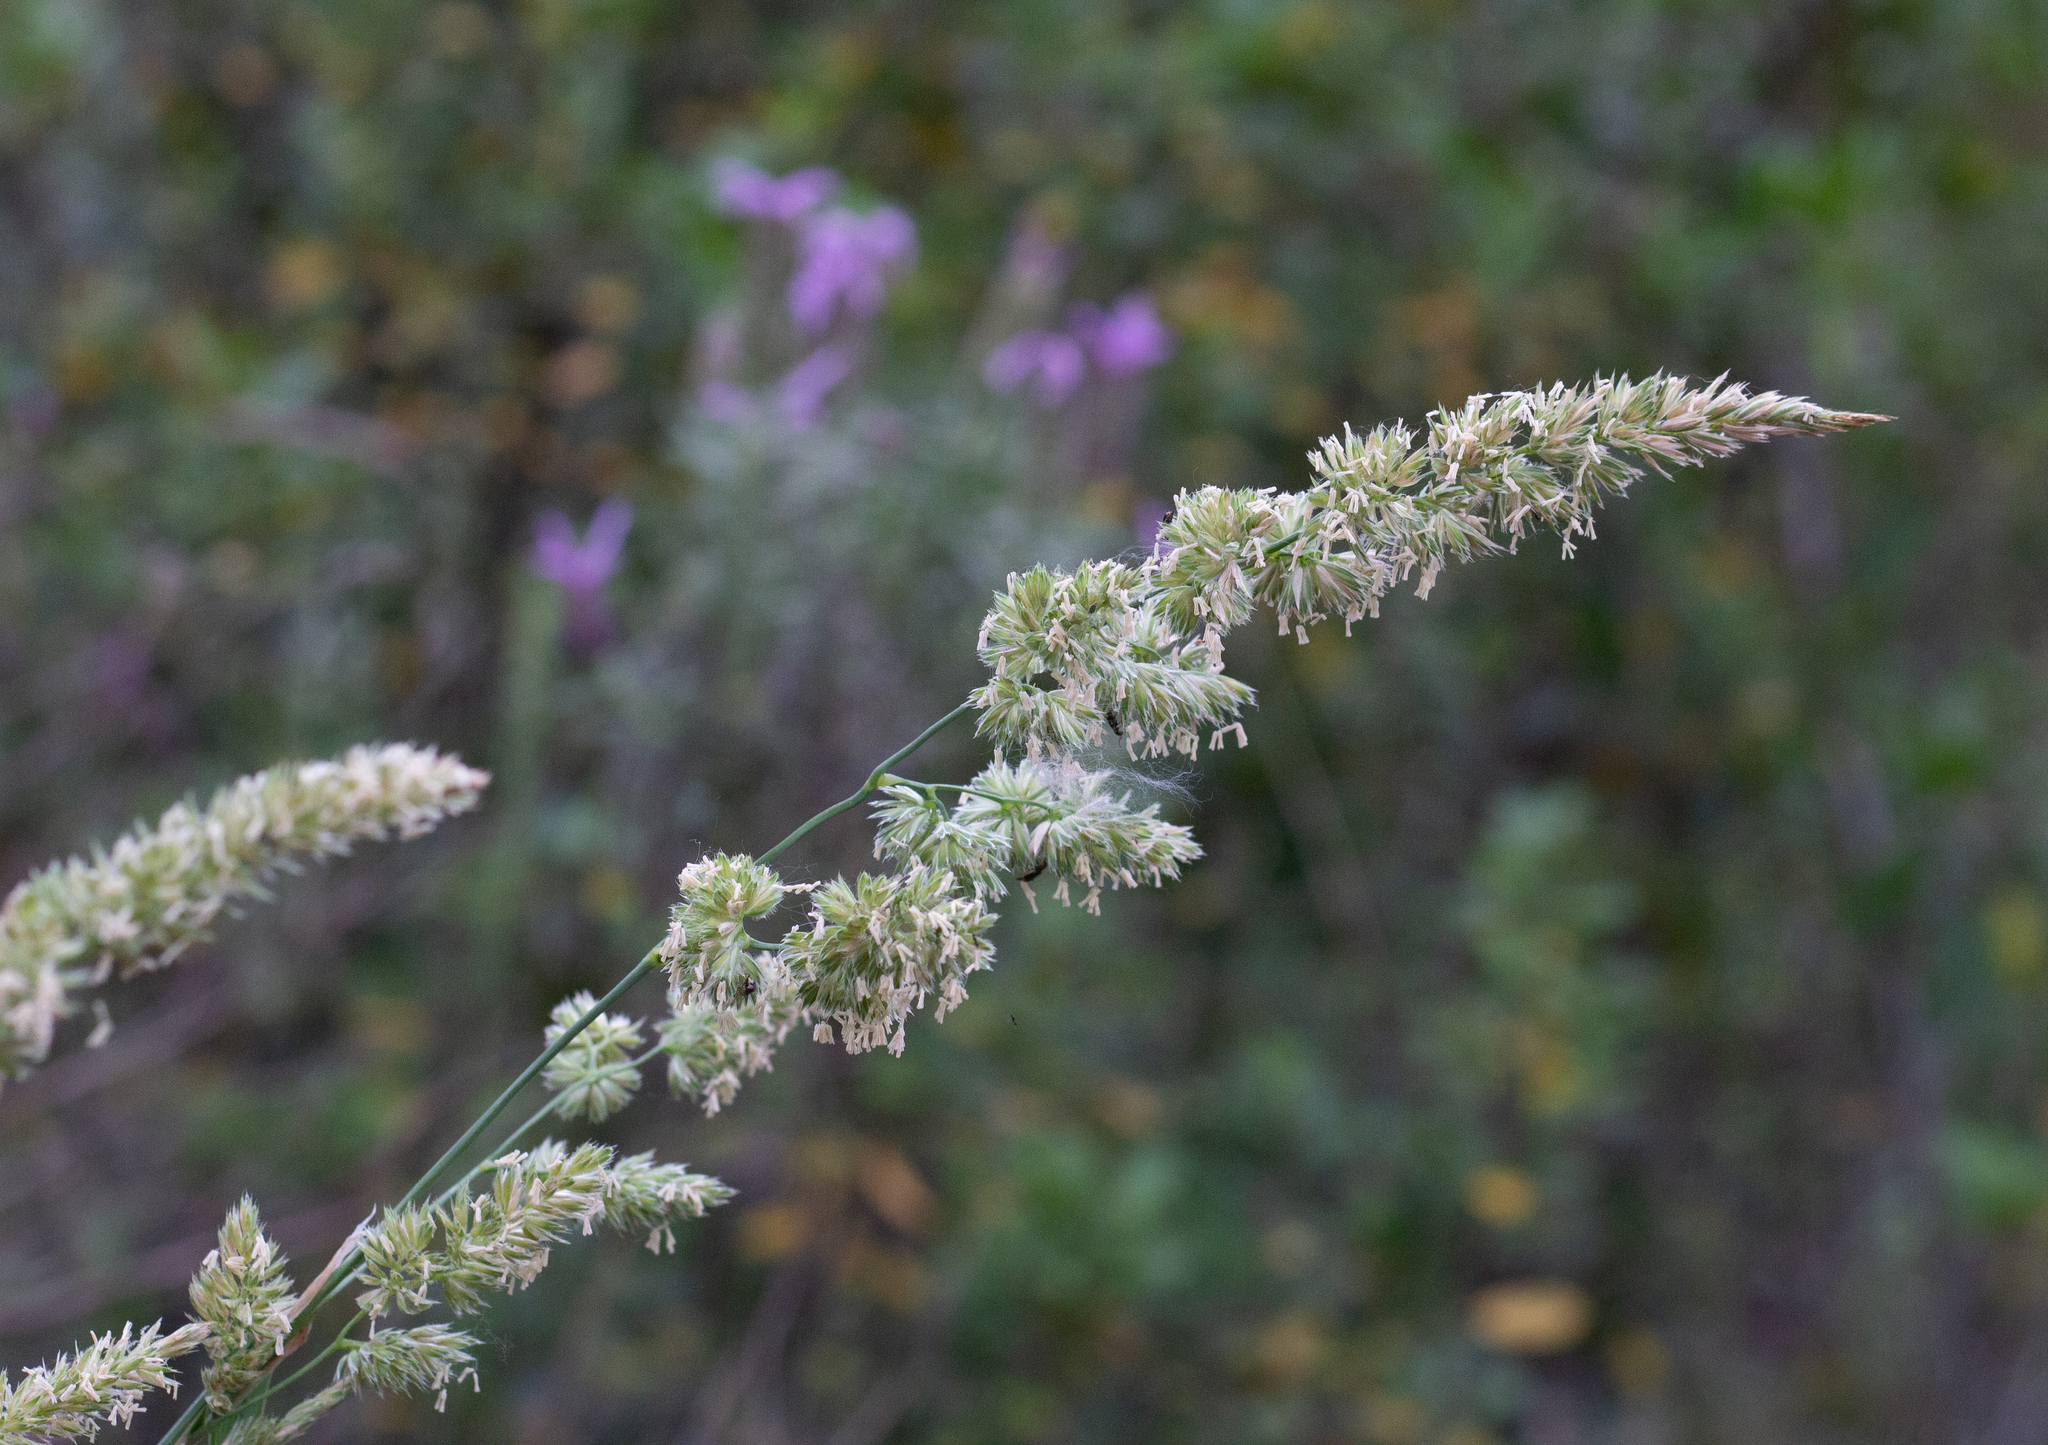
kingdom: Plantae
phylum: Tracheophyta
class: Liliopsida
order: Poales
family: Poaceae
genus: Dactylis
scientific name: Dactylis glomerata
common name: Orchardgrass
